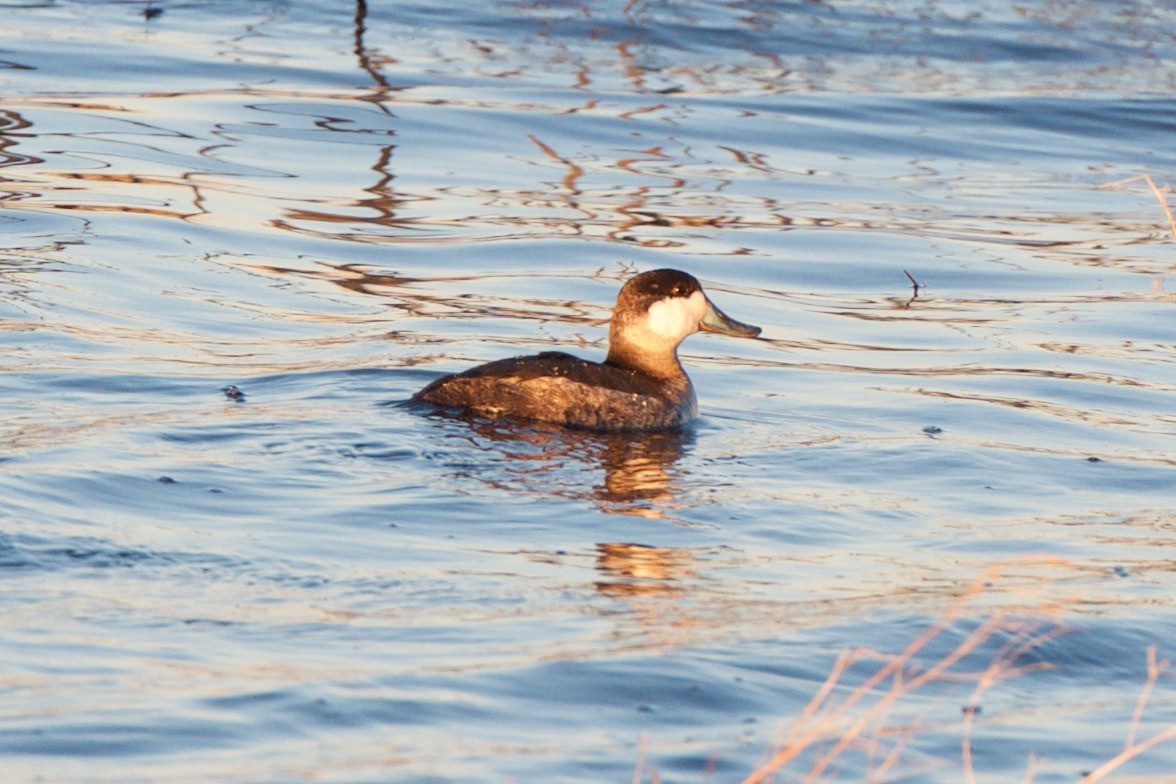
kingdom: Animalia
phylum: Chordata
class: Aves
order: Anseriformes
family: Anatidae
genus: Oxyura
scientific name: Oxyura jamaicensis
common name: Ruddy duck
